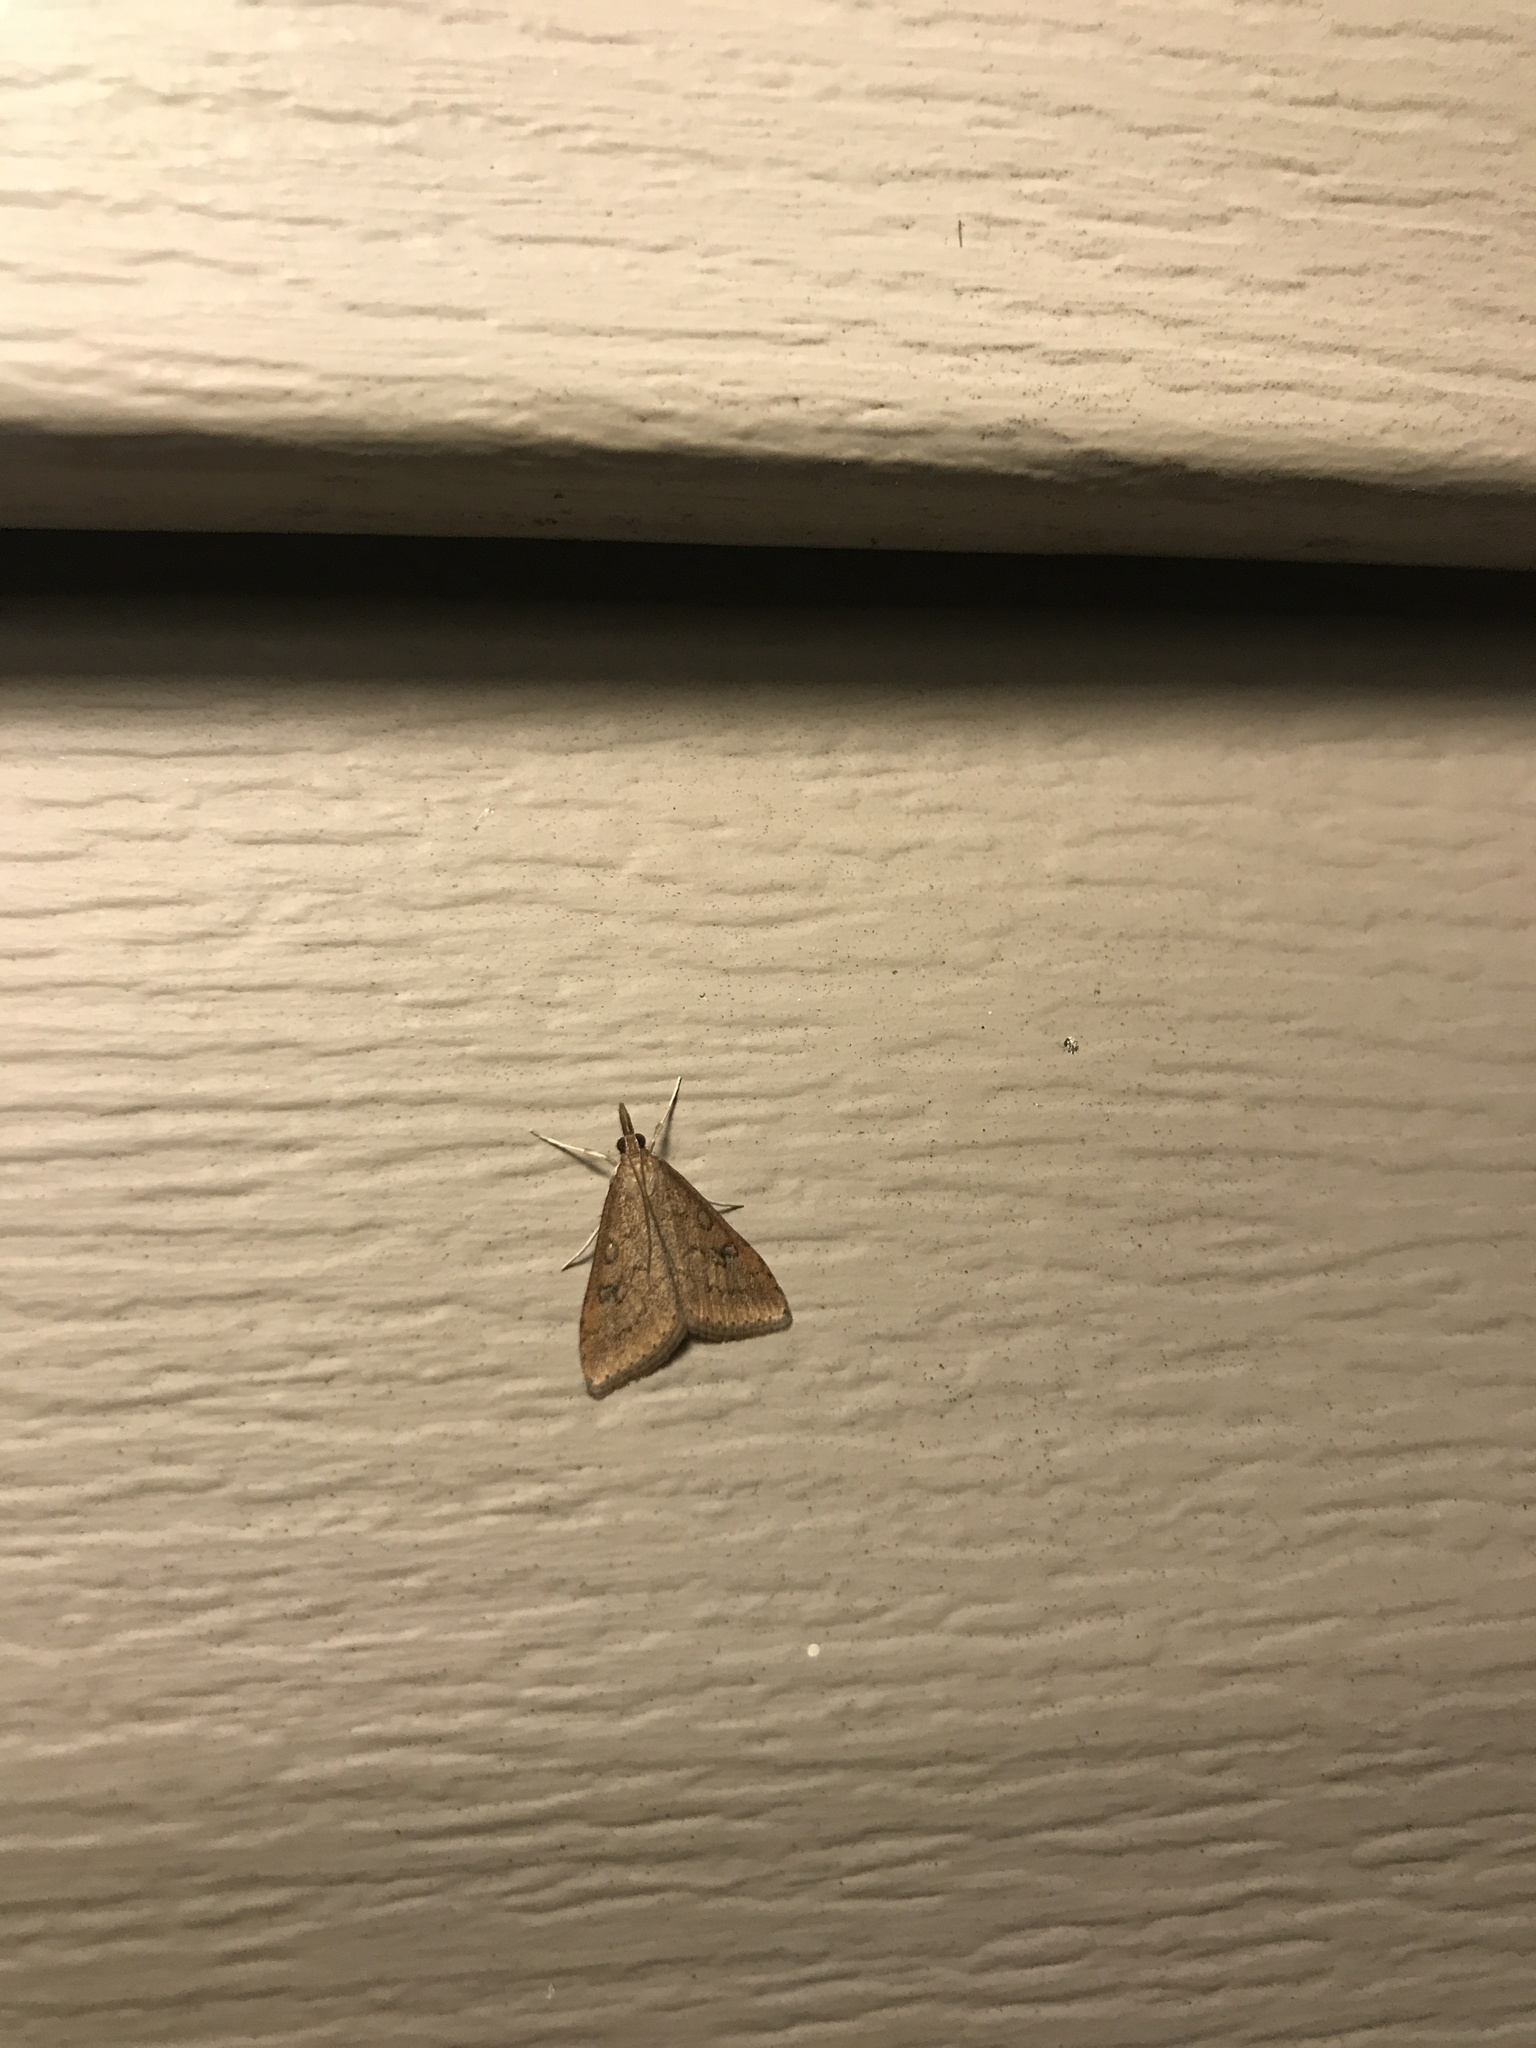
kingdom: Animalia
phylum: Arthropoda
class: Insecta
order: Lepidoptera
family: Crambidae
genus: Udea
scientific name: Udea rubigalis
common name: Celery leaftier moth
